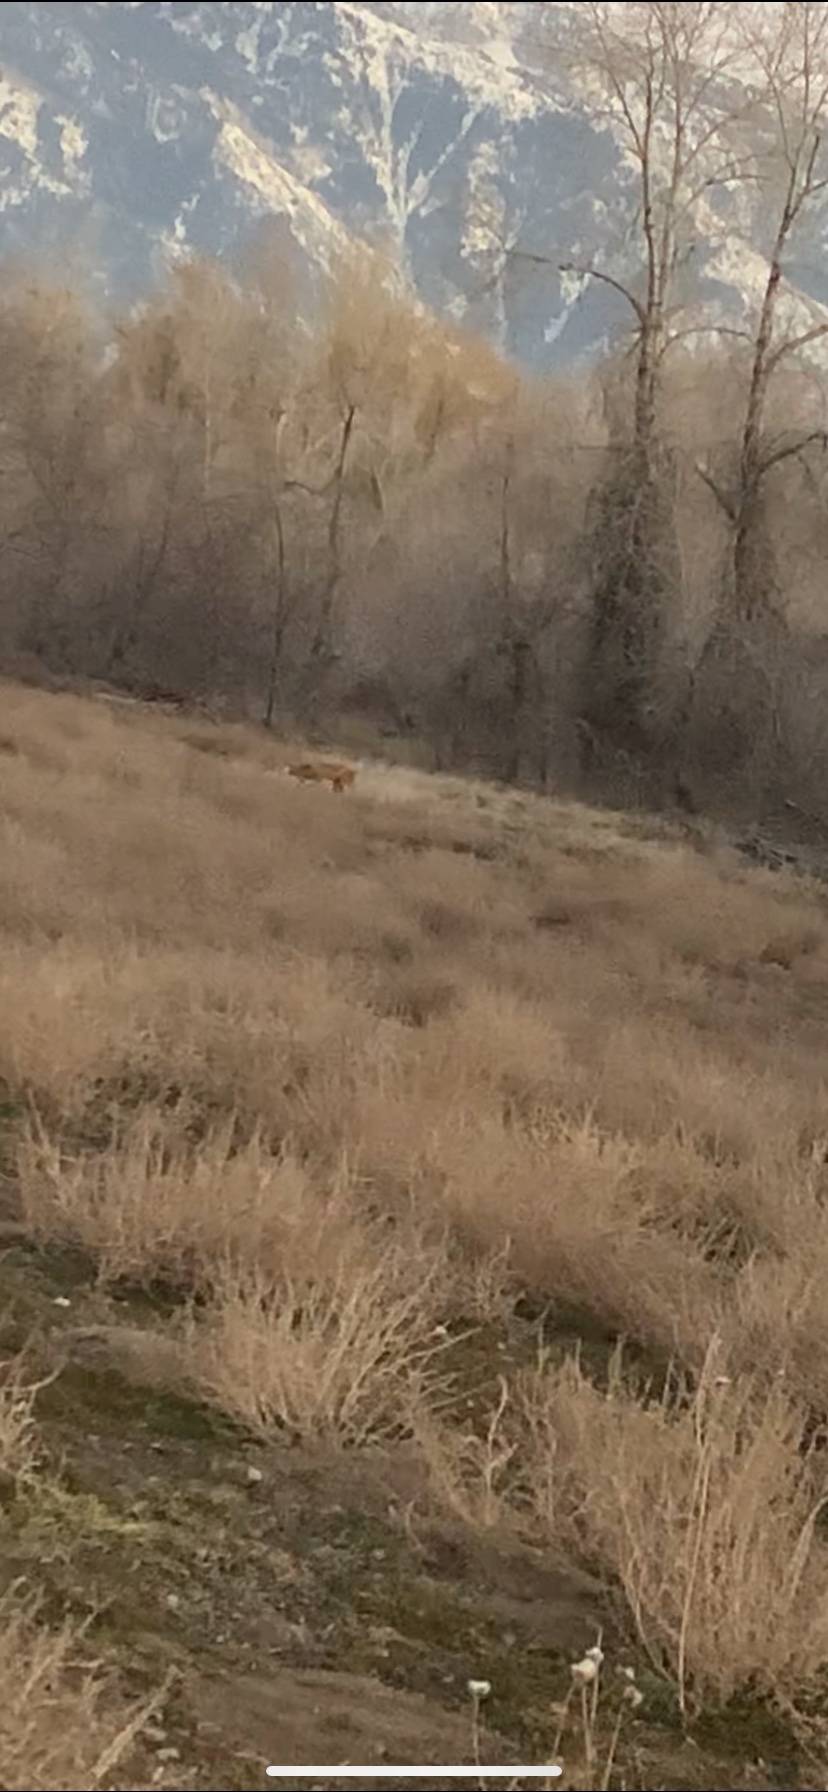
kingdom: Animalia
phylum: Chordata
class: Mammalia
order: Carnivora
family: Canidae
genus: Vulpes
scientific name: Vulpes vulpes
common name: Red fox
